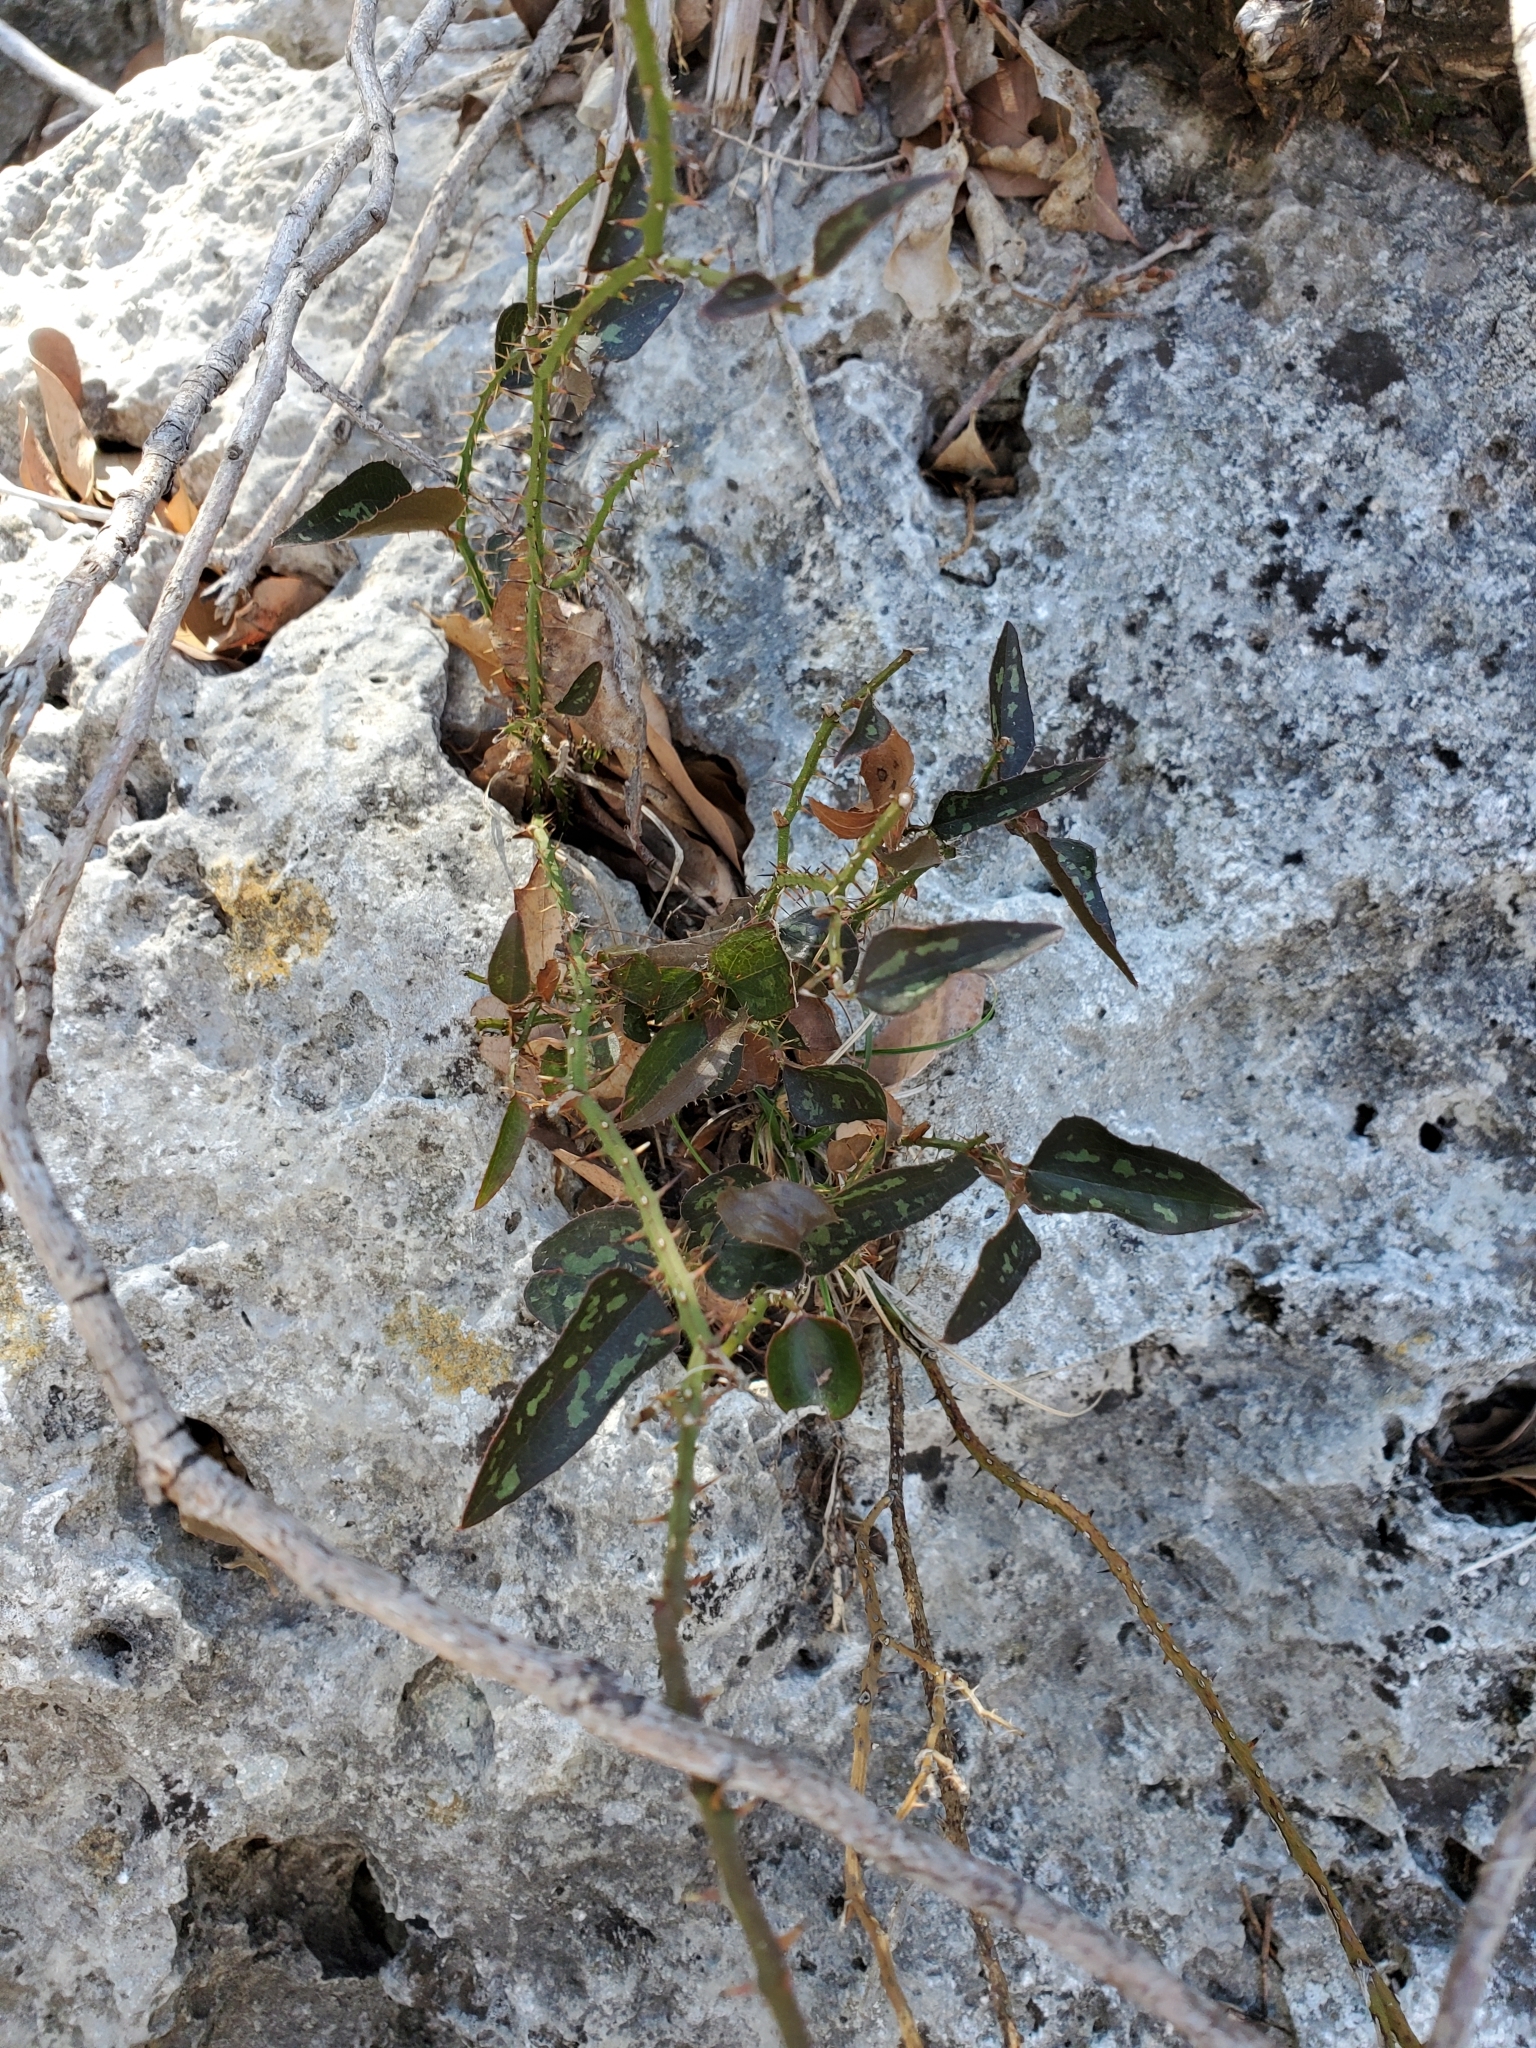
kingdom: Plantae
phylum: Tracheophyta
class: Liliopsida
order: Liliales
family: Smilacaceae
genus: Smilax
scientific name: Smilax bona-nox
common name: Catbrier
